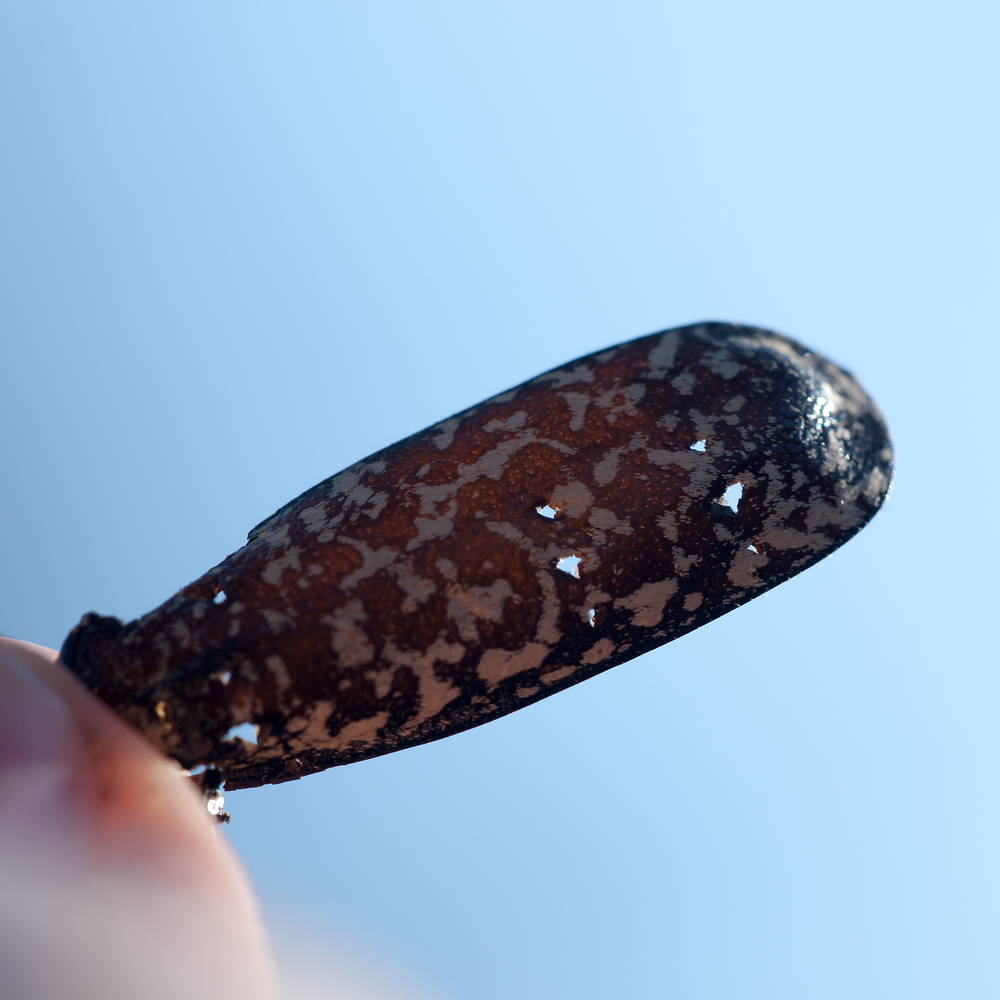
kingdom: Animalia
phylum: Arthropoda
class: Insecta
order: Coleoptera
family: Scarabaeidae
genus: Polyphylla
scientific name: Polyphylla fullo
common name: Pine chafer
